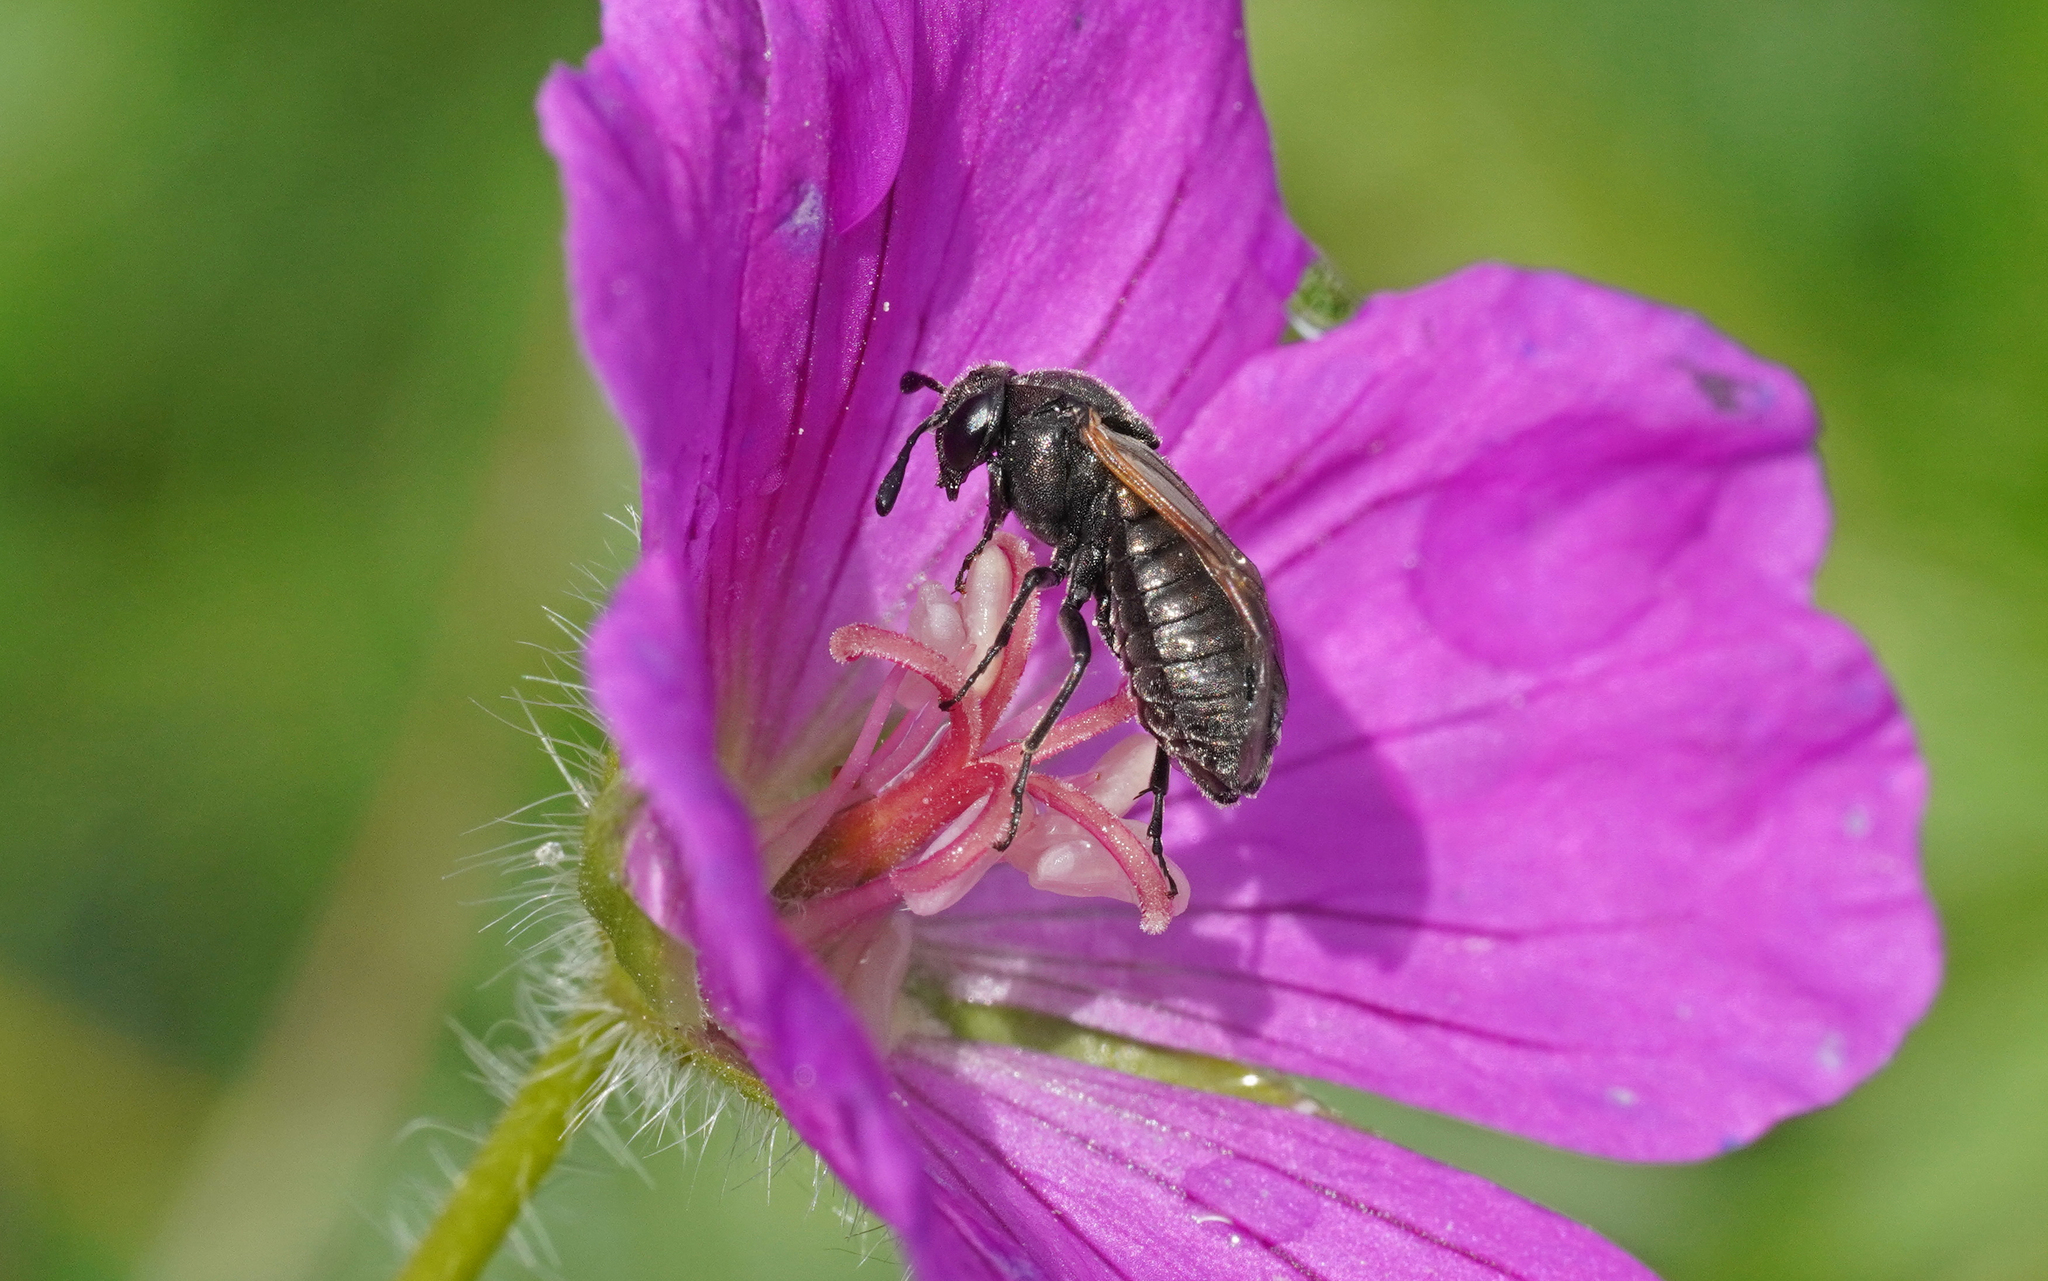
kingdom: Animalia
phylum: Arthropoda
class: Insecta
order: Hymenoptera
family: Cimbicidae
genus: Corynis
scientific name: Corynis obscura
